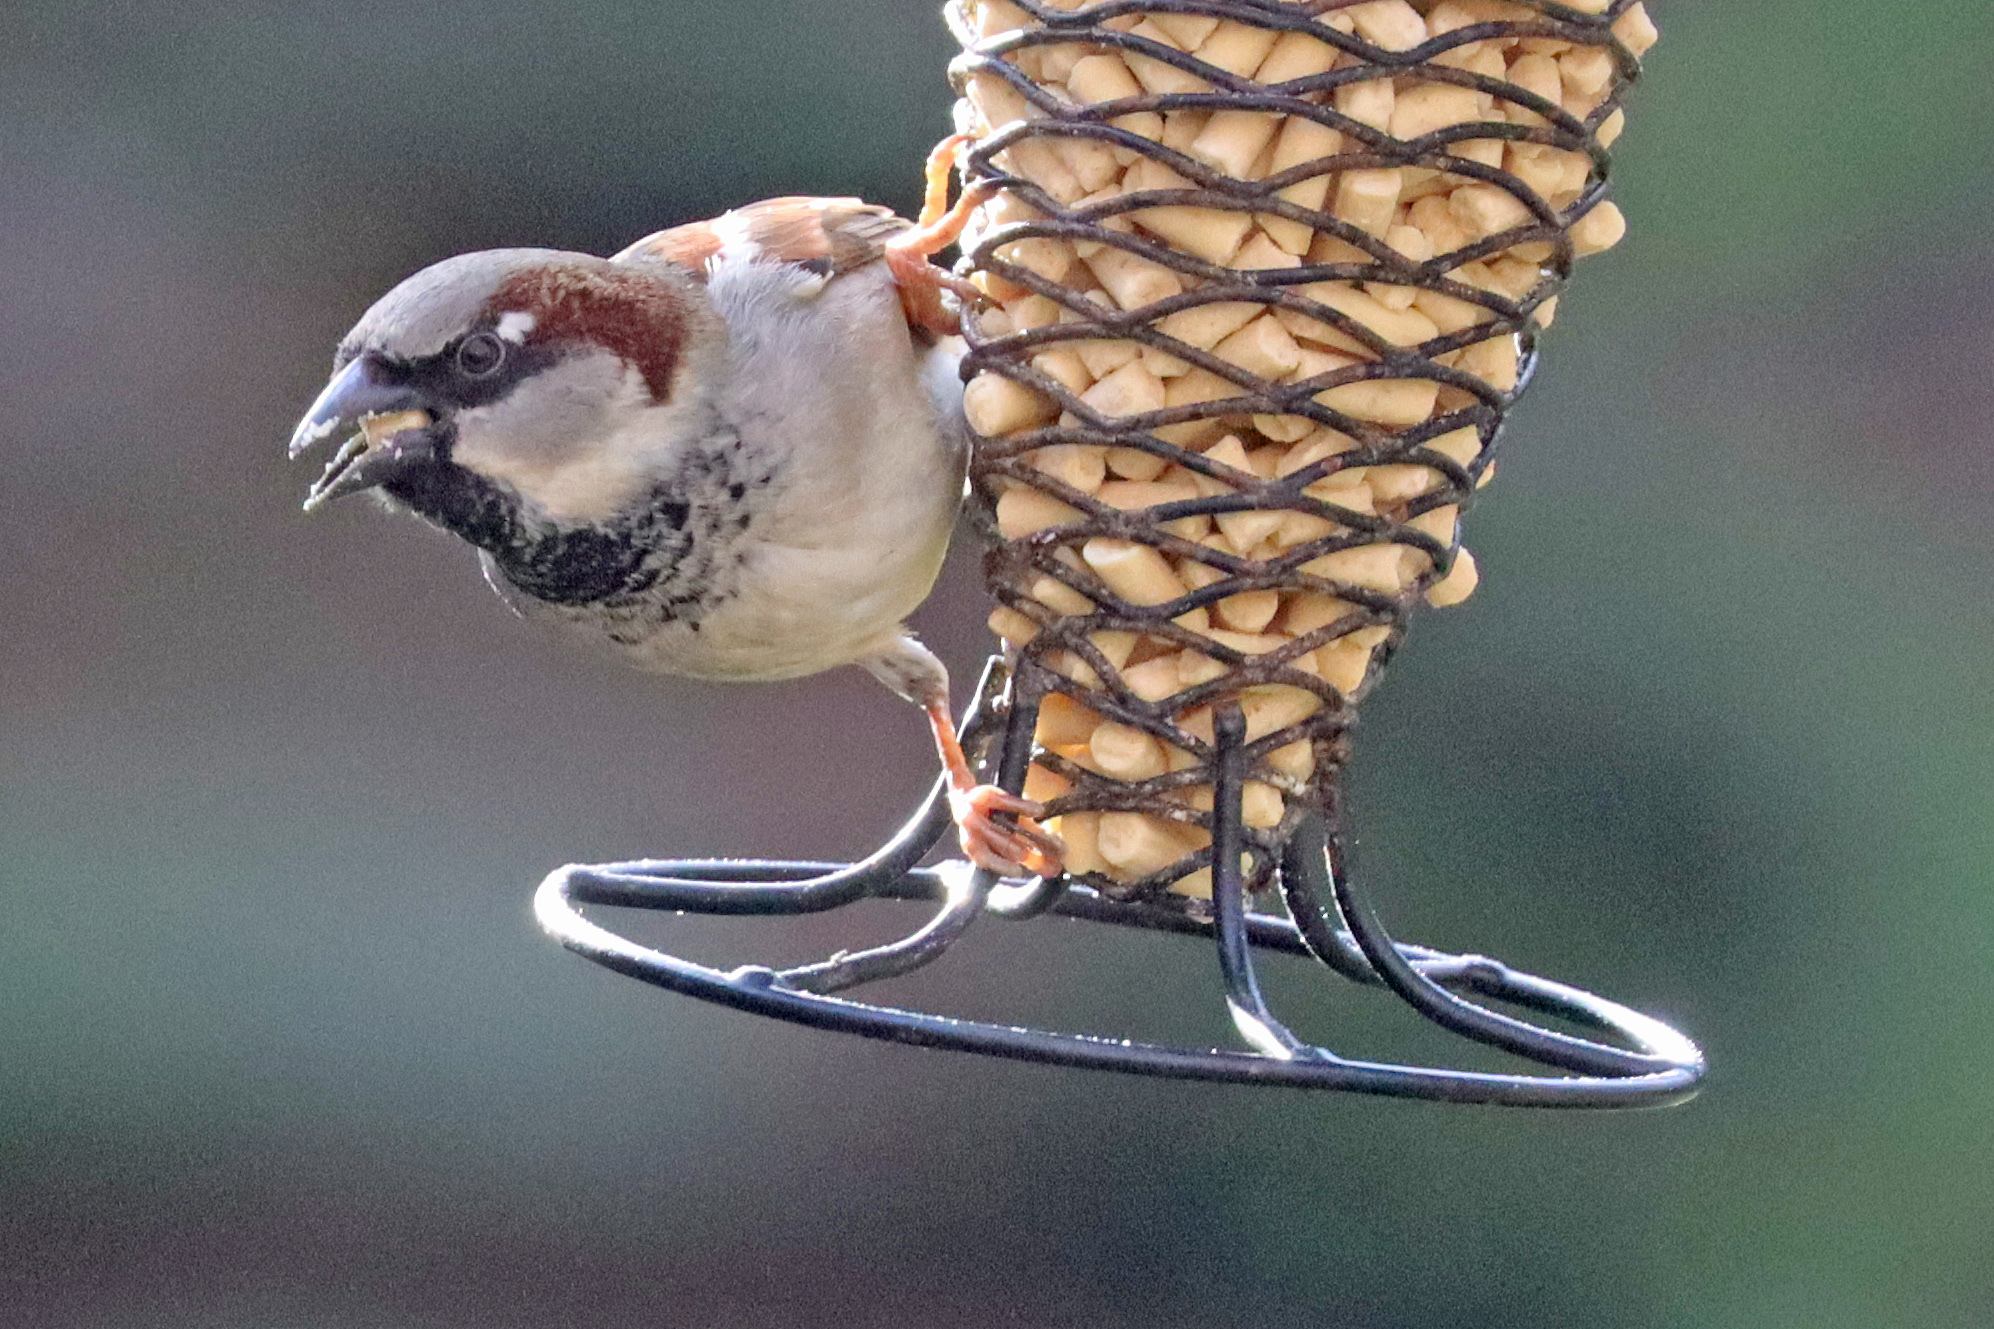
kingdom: Animalia
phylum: Chordata
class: Aves
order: Passeriformes
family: Passeridae
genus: Passer
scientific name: Passer domesticus
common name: House sparrow
